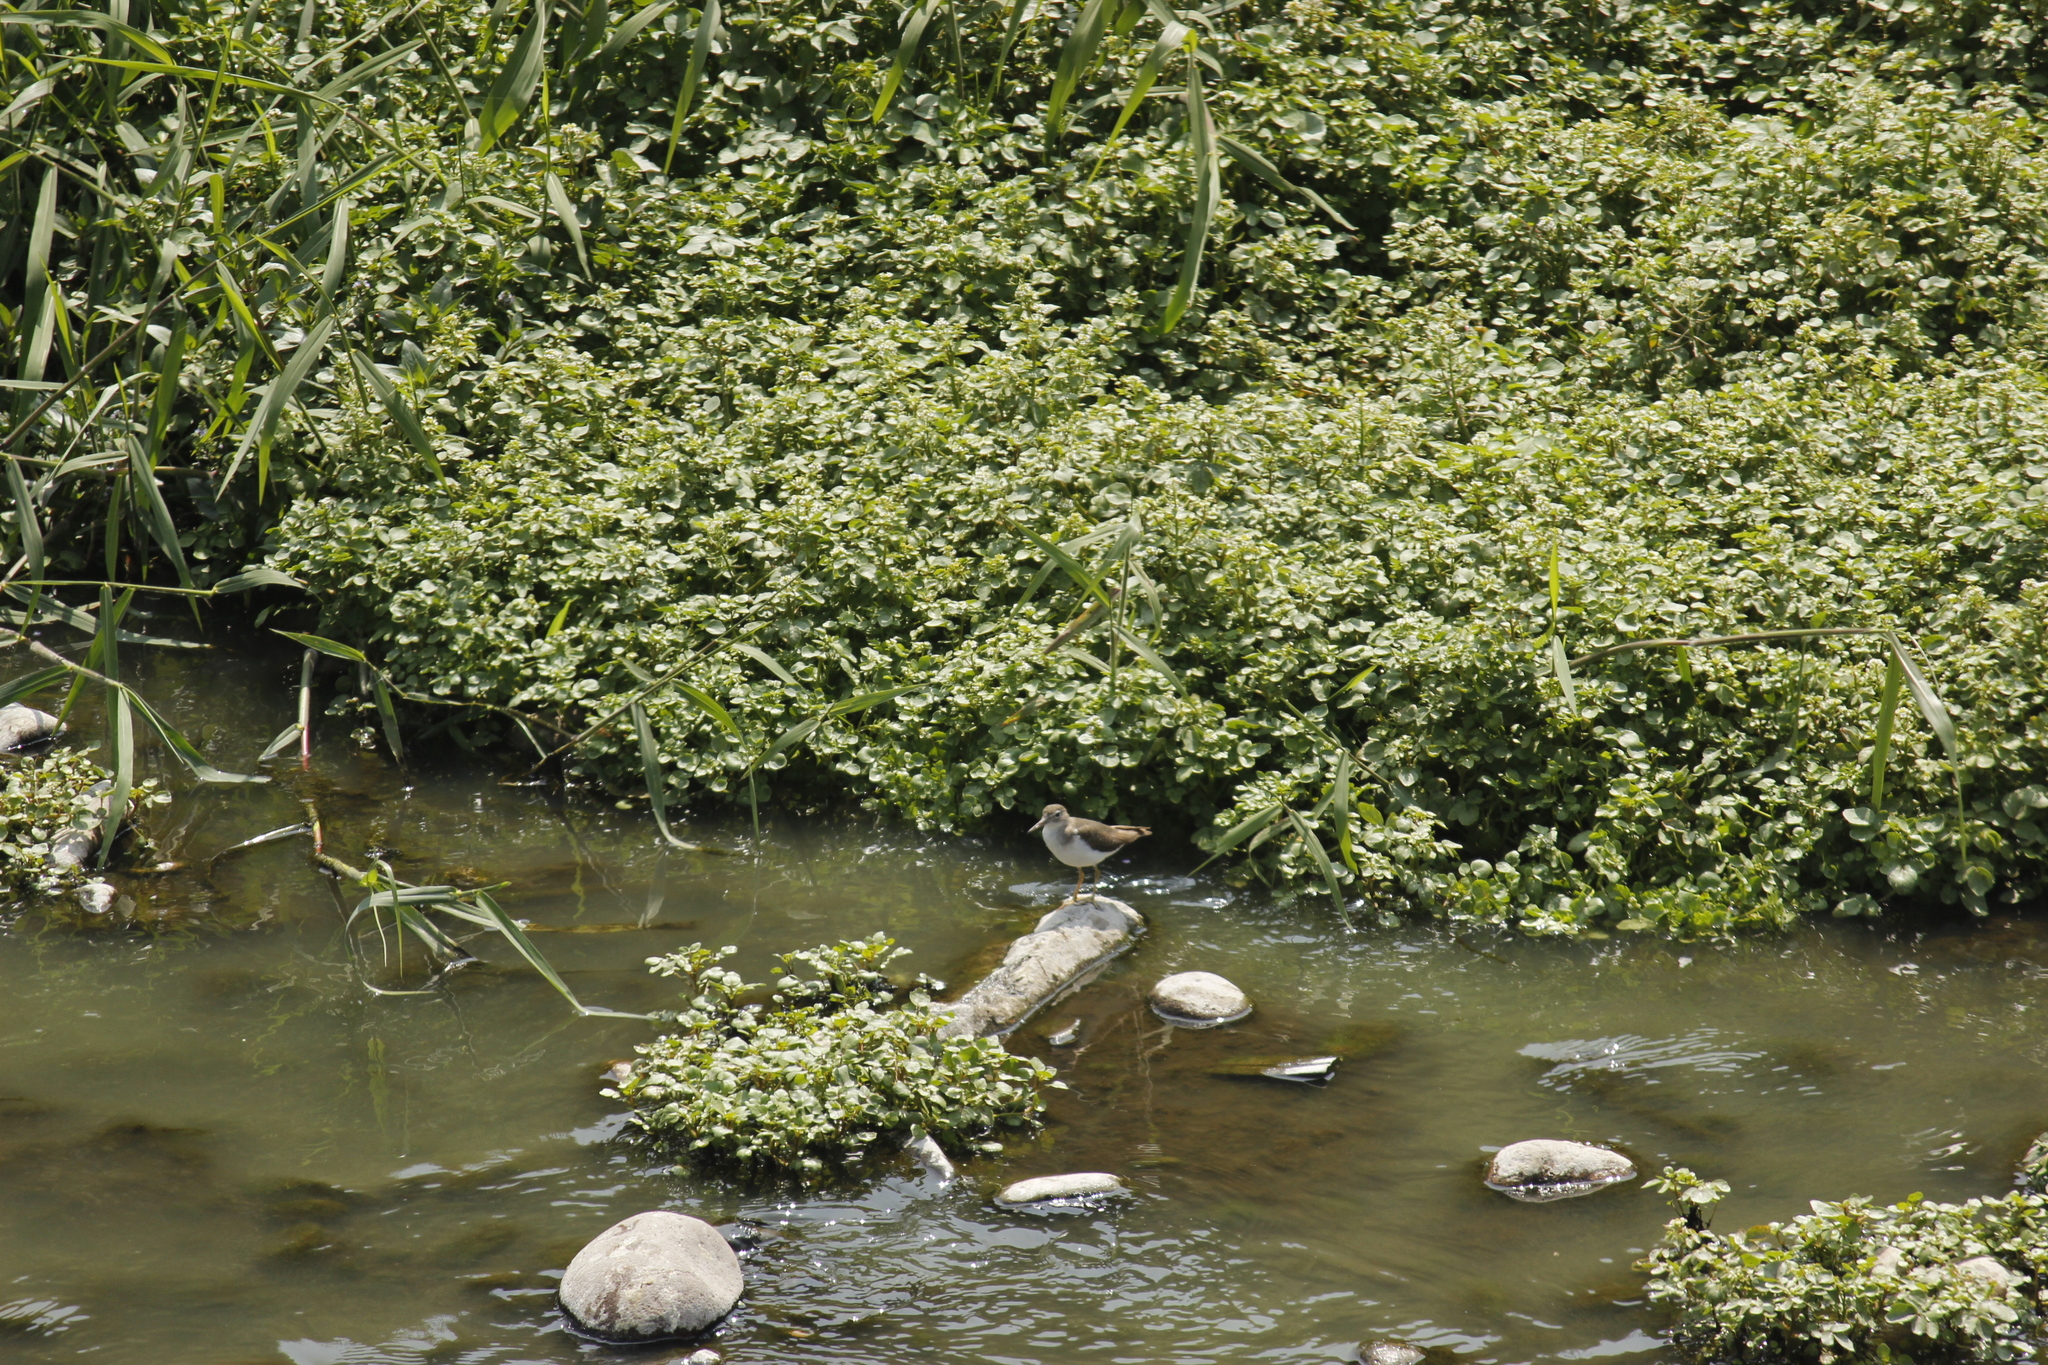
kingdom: Animalia
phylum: Chordata
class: Aves
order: Charadriiformes
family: Scolopacidae
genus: Actitis
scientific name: Actitis macularius
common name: Spotted sandpiper
